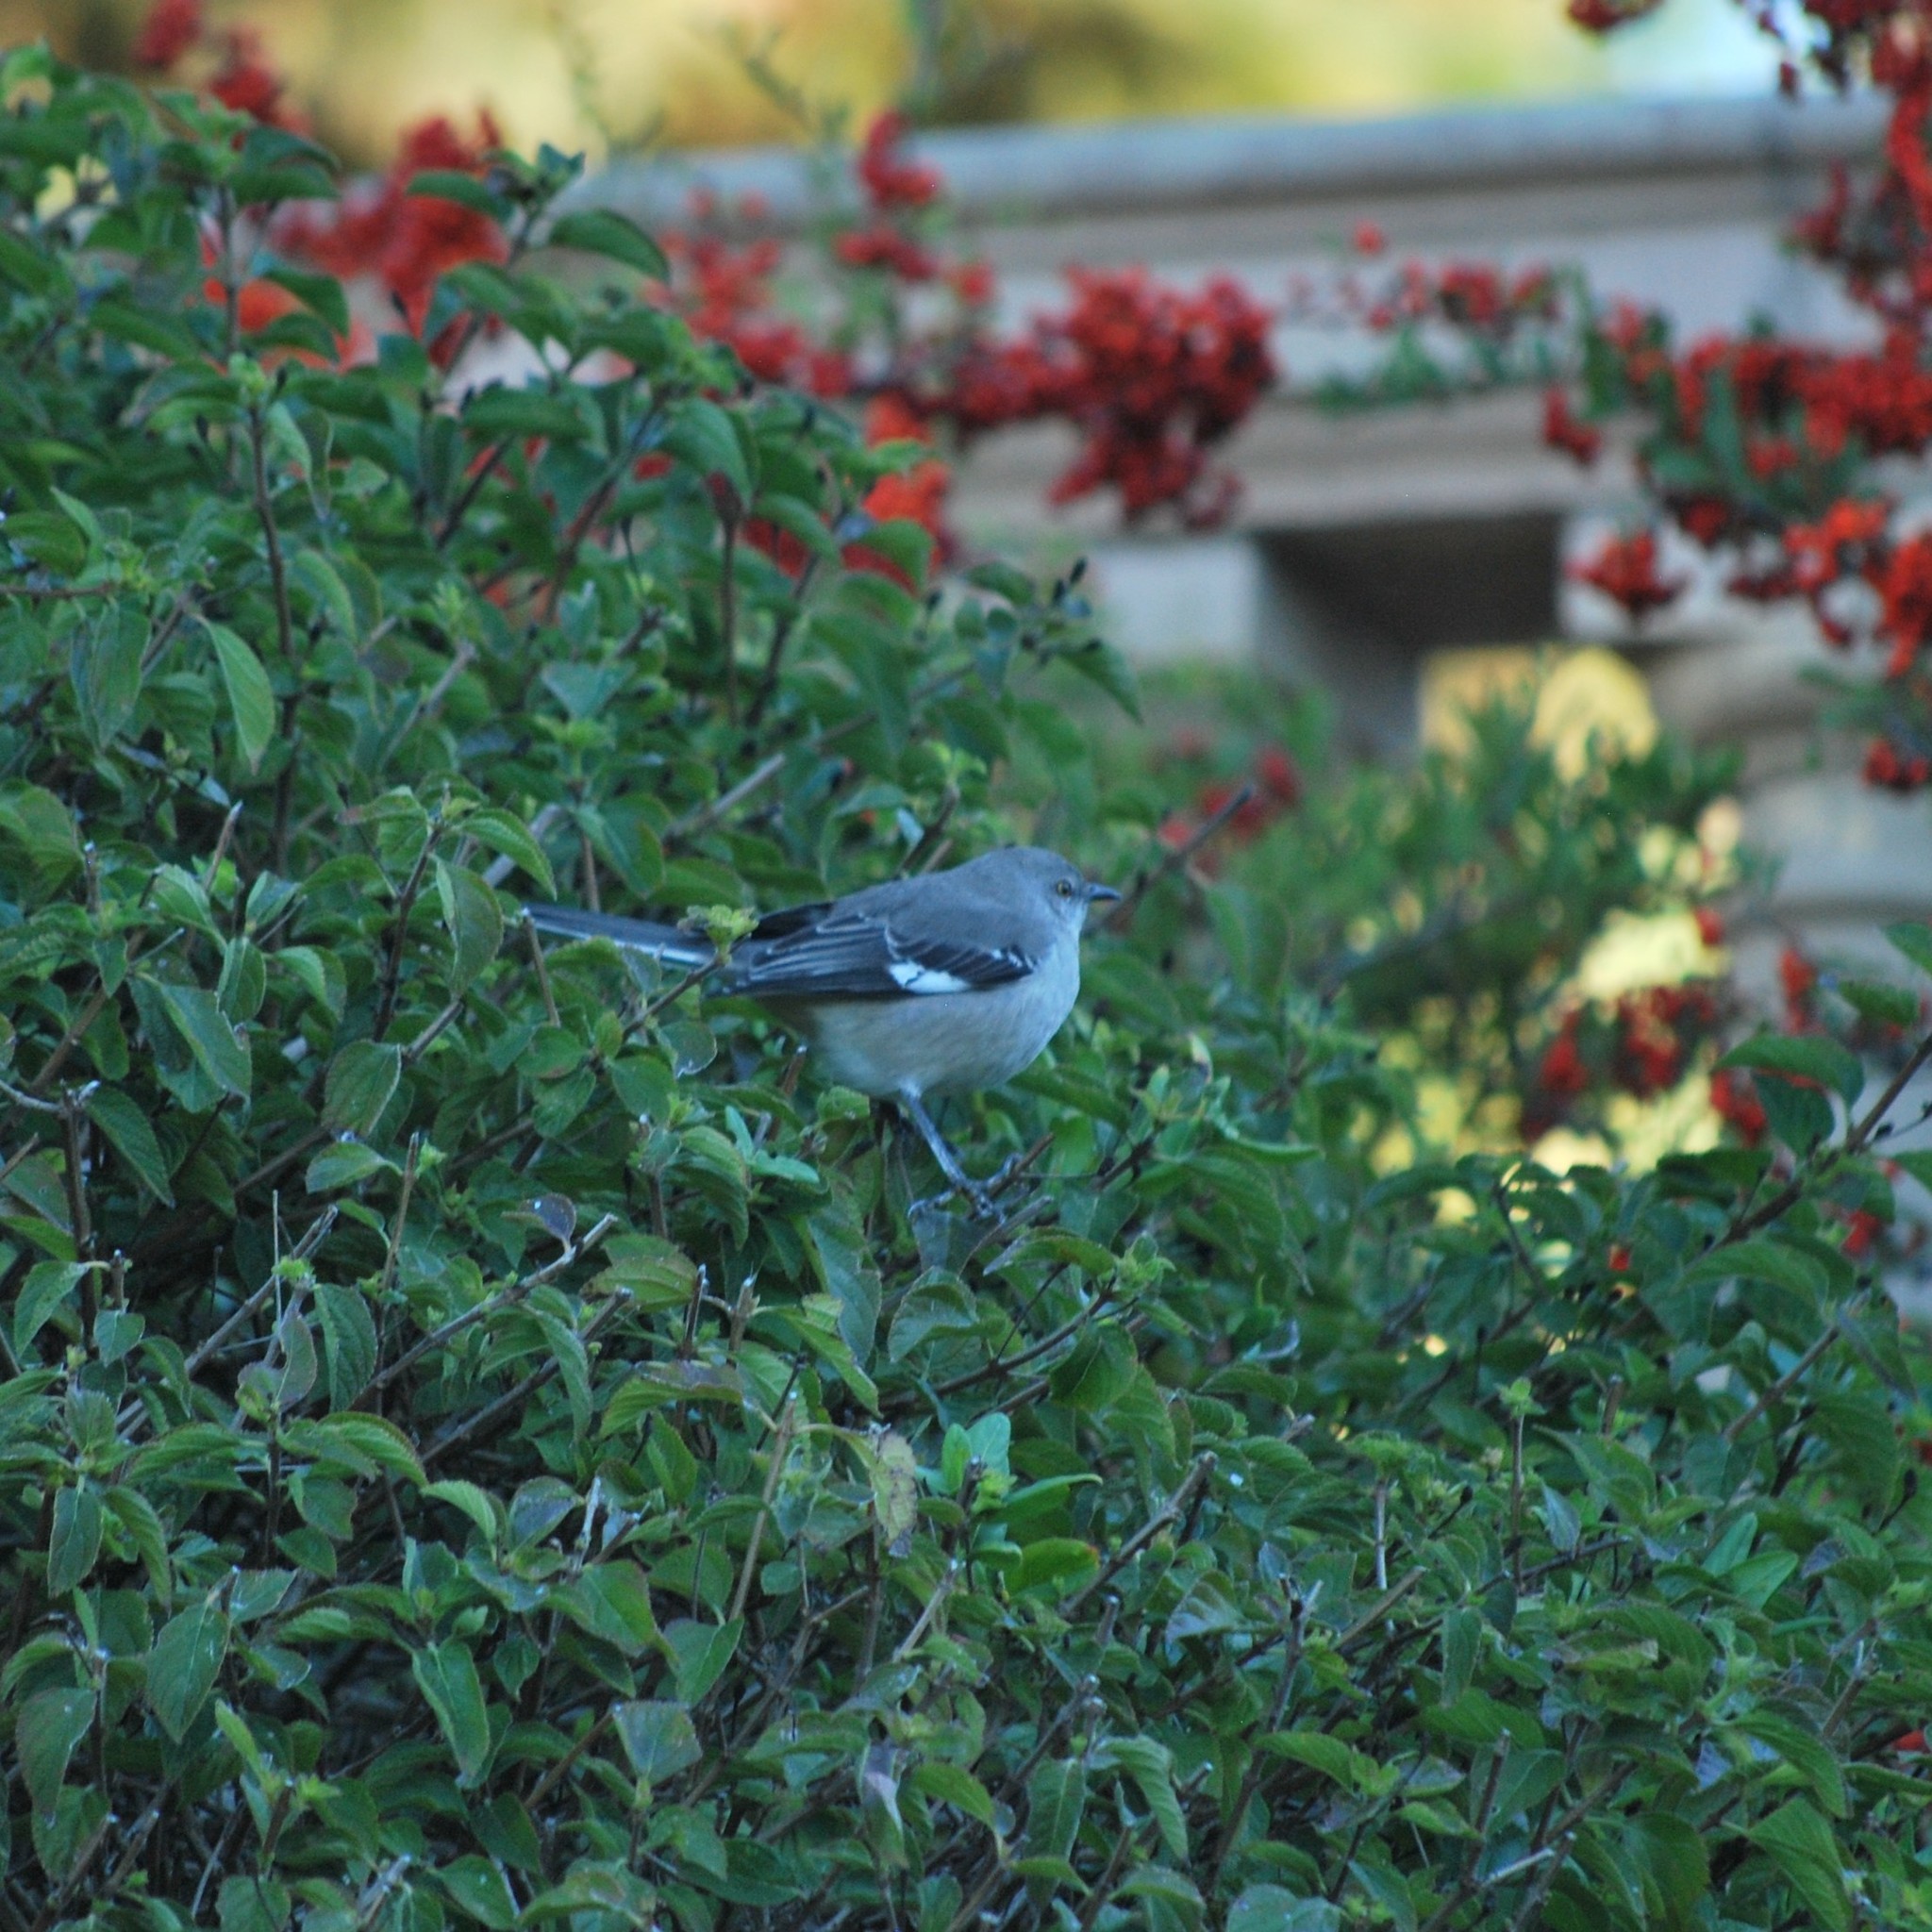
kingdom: Animalia
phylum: Chordata
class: Aves
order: Passeriformes
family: Mimidae
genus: Mimus
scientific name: Mimus polyglottos
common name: Northern mockingbird
